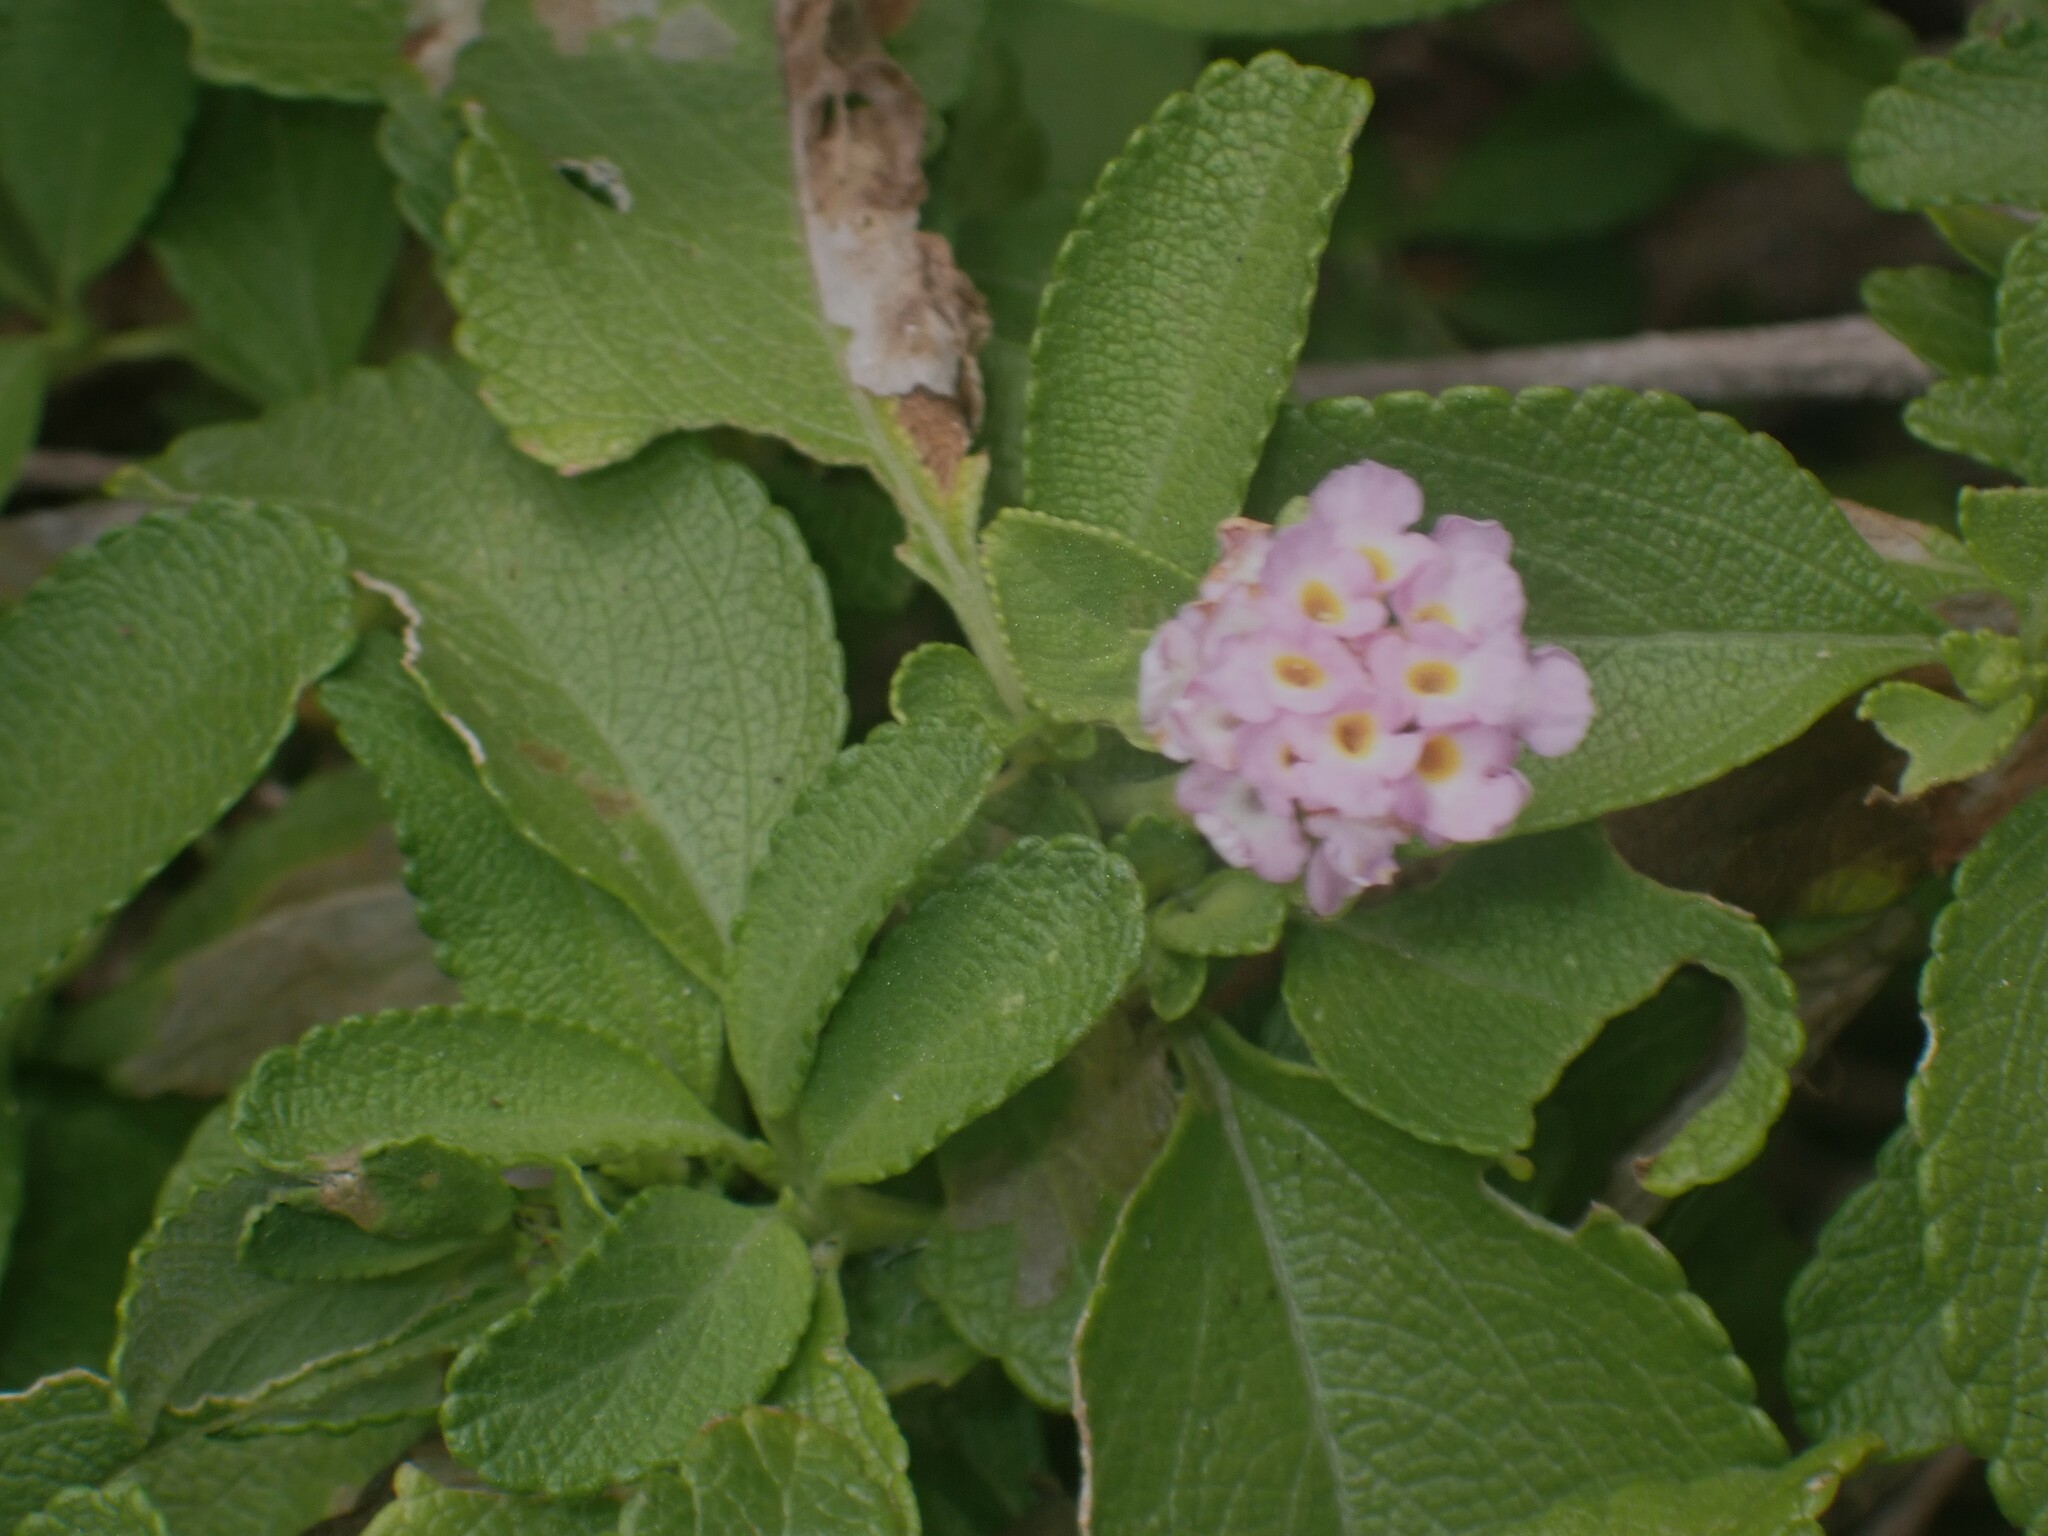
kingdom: Plantae
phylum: Tracheophyta
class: Magnoliopsida
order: Lamiales
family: Verbenaceae
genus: Lantana
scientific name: Lantana involucrata
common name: Black sage
